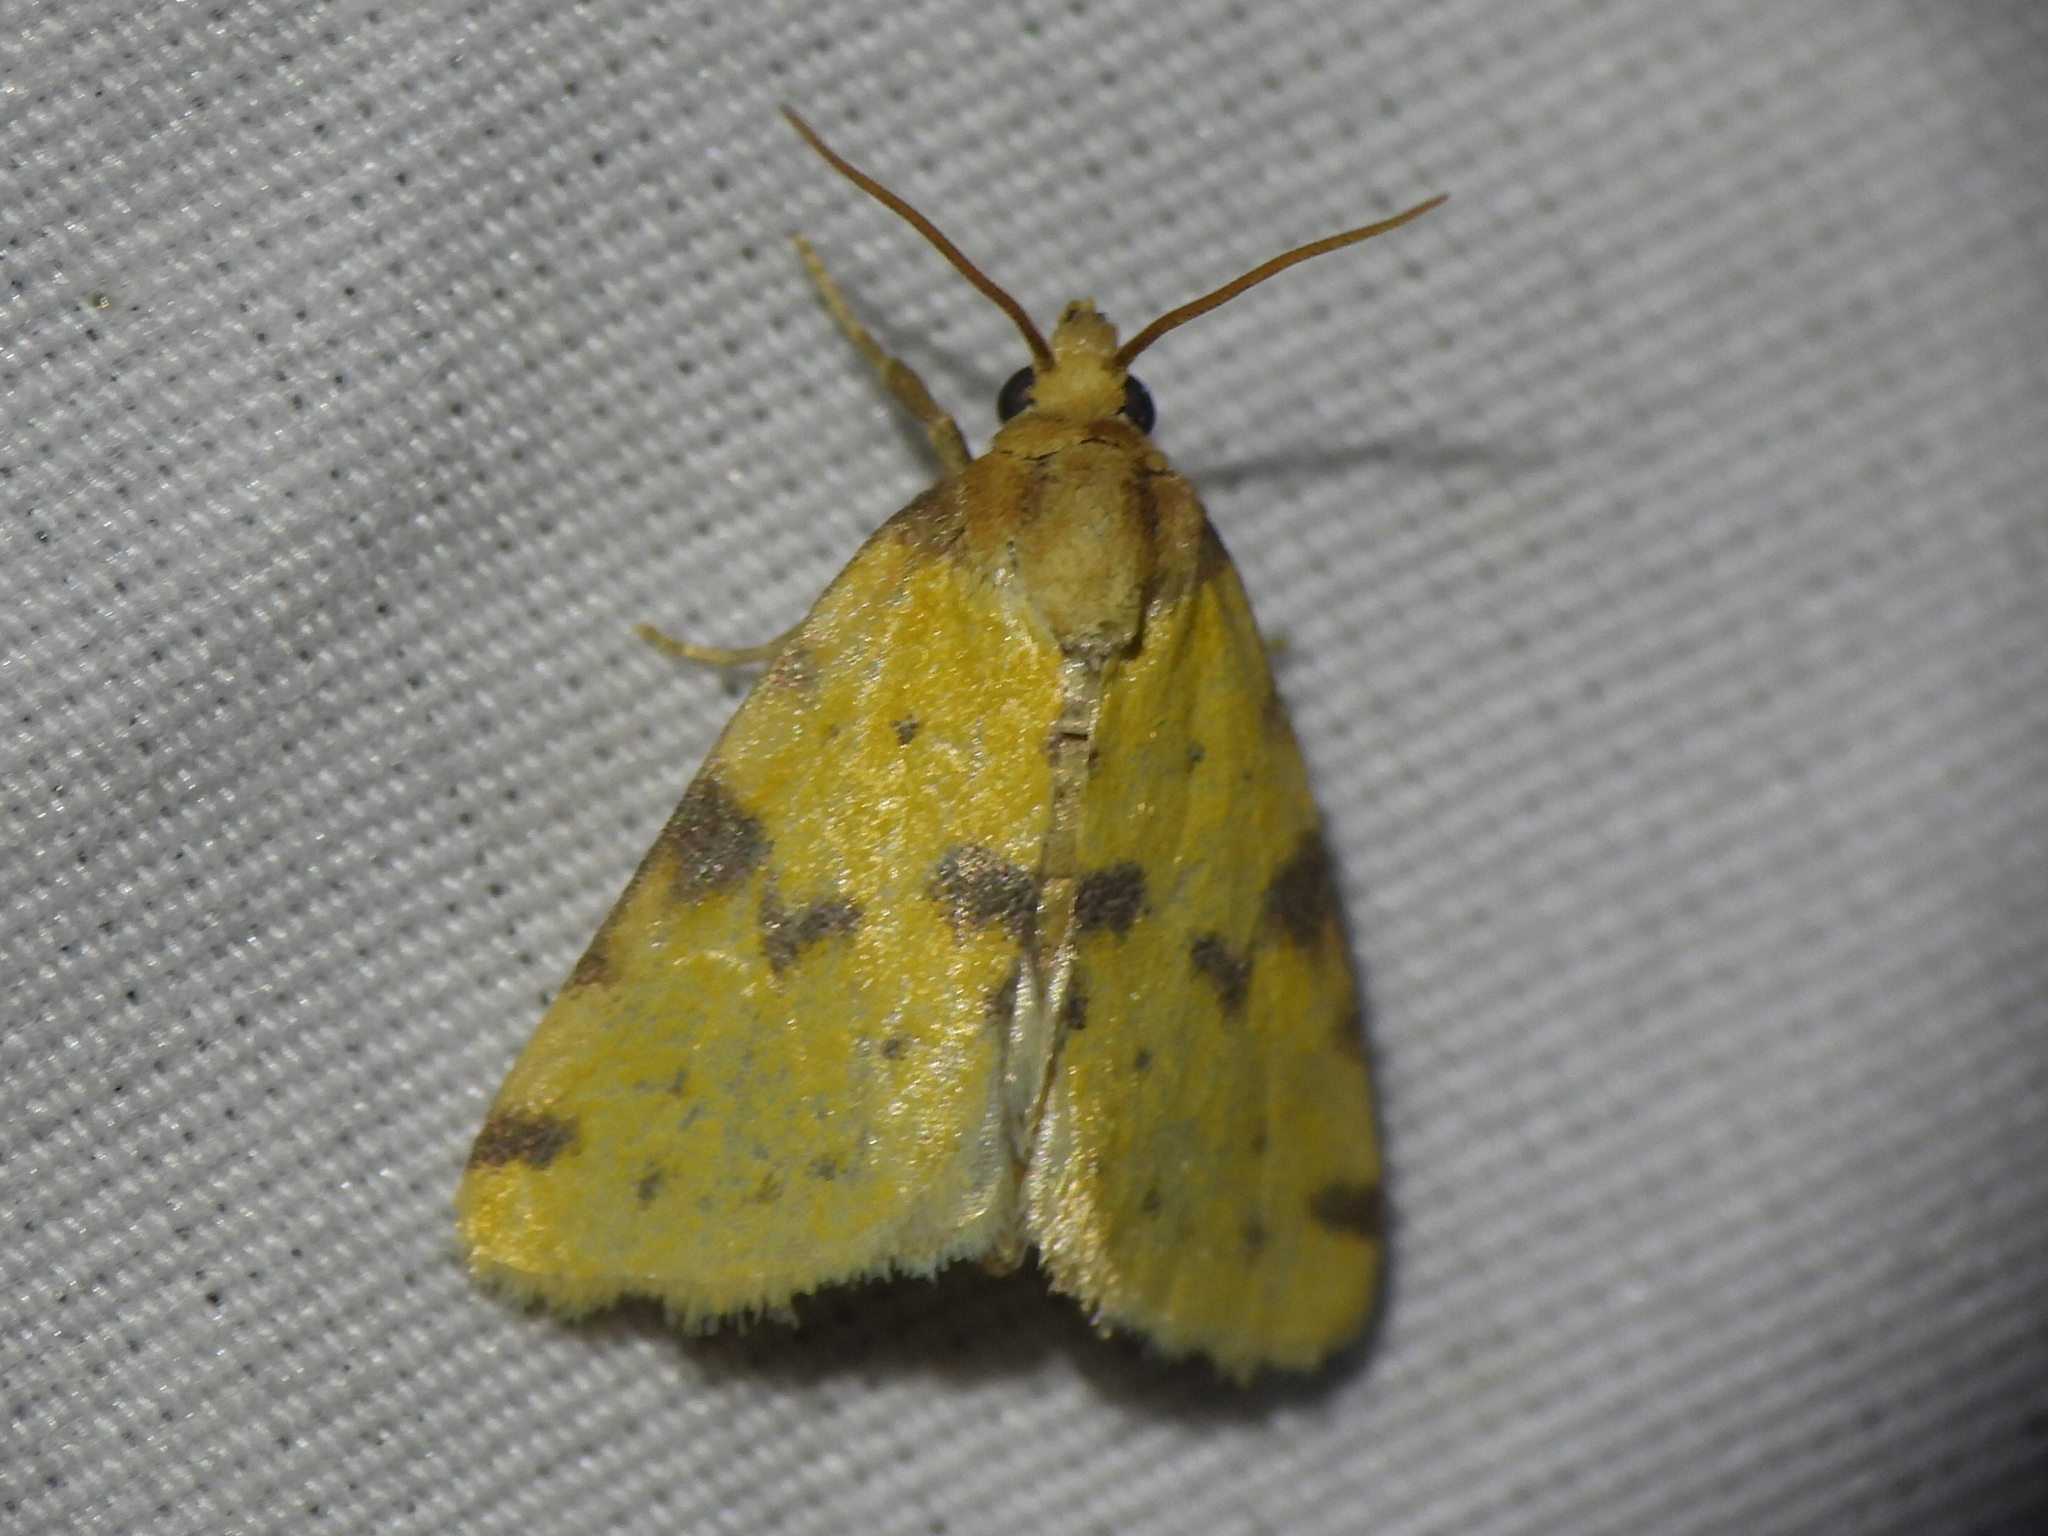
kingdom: Animalia
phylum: Arthropoda
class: Insecta
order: Lepidoptera
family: Noctuidae
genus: Azenia
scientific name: Azenia obtusa
